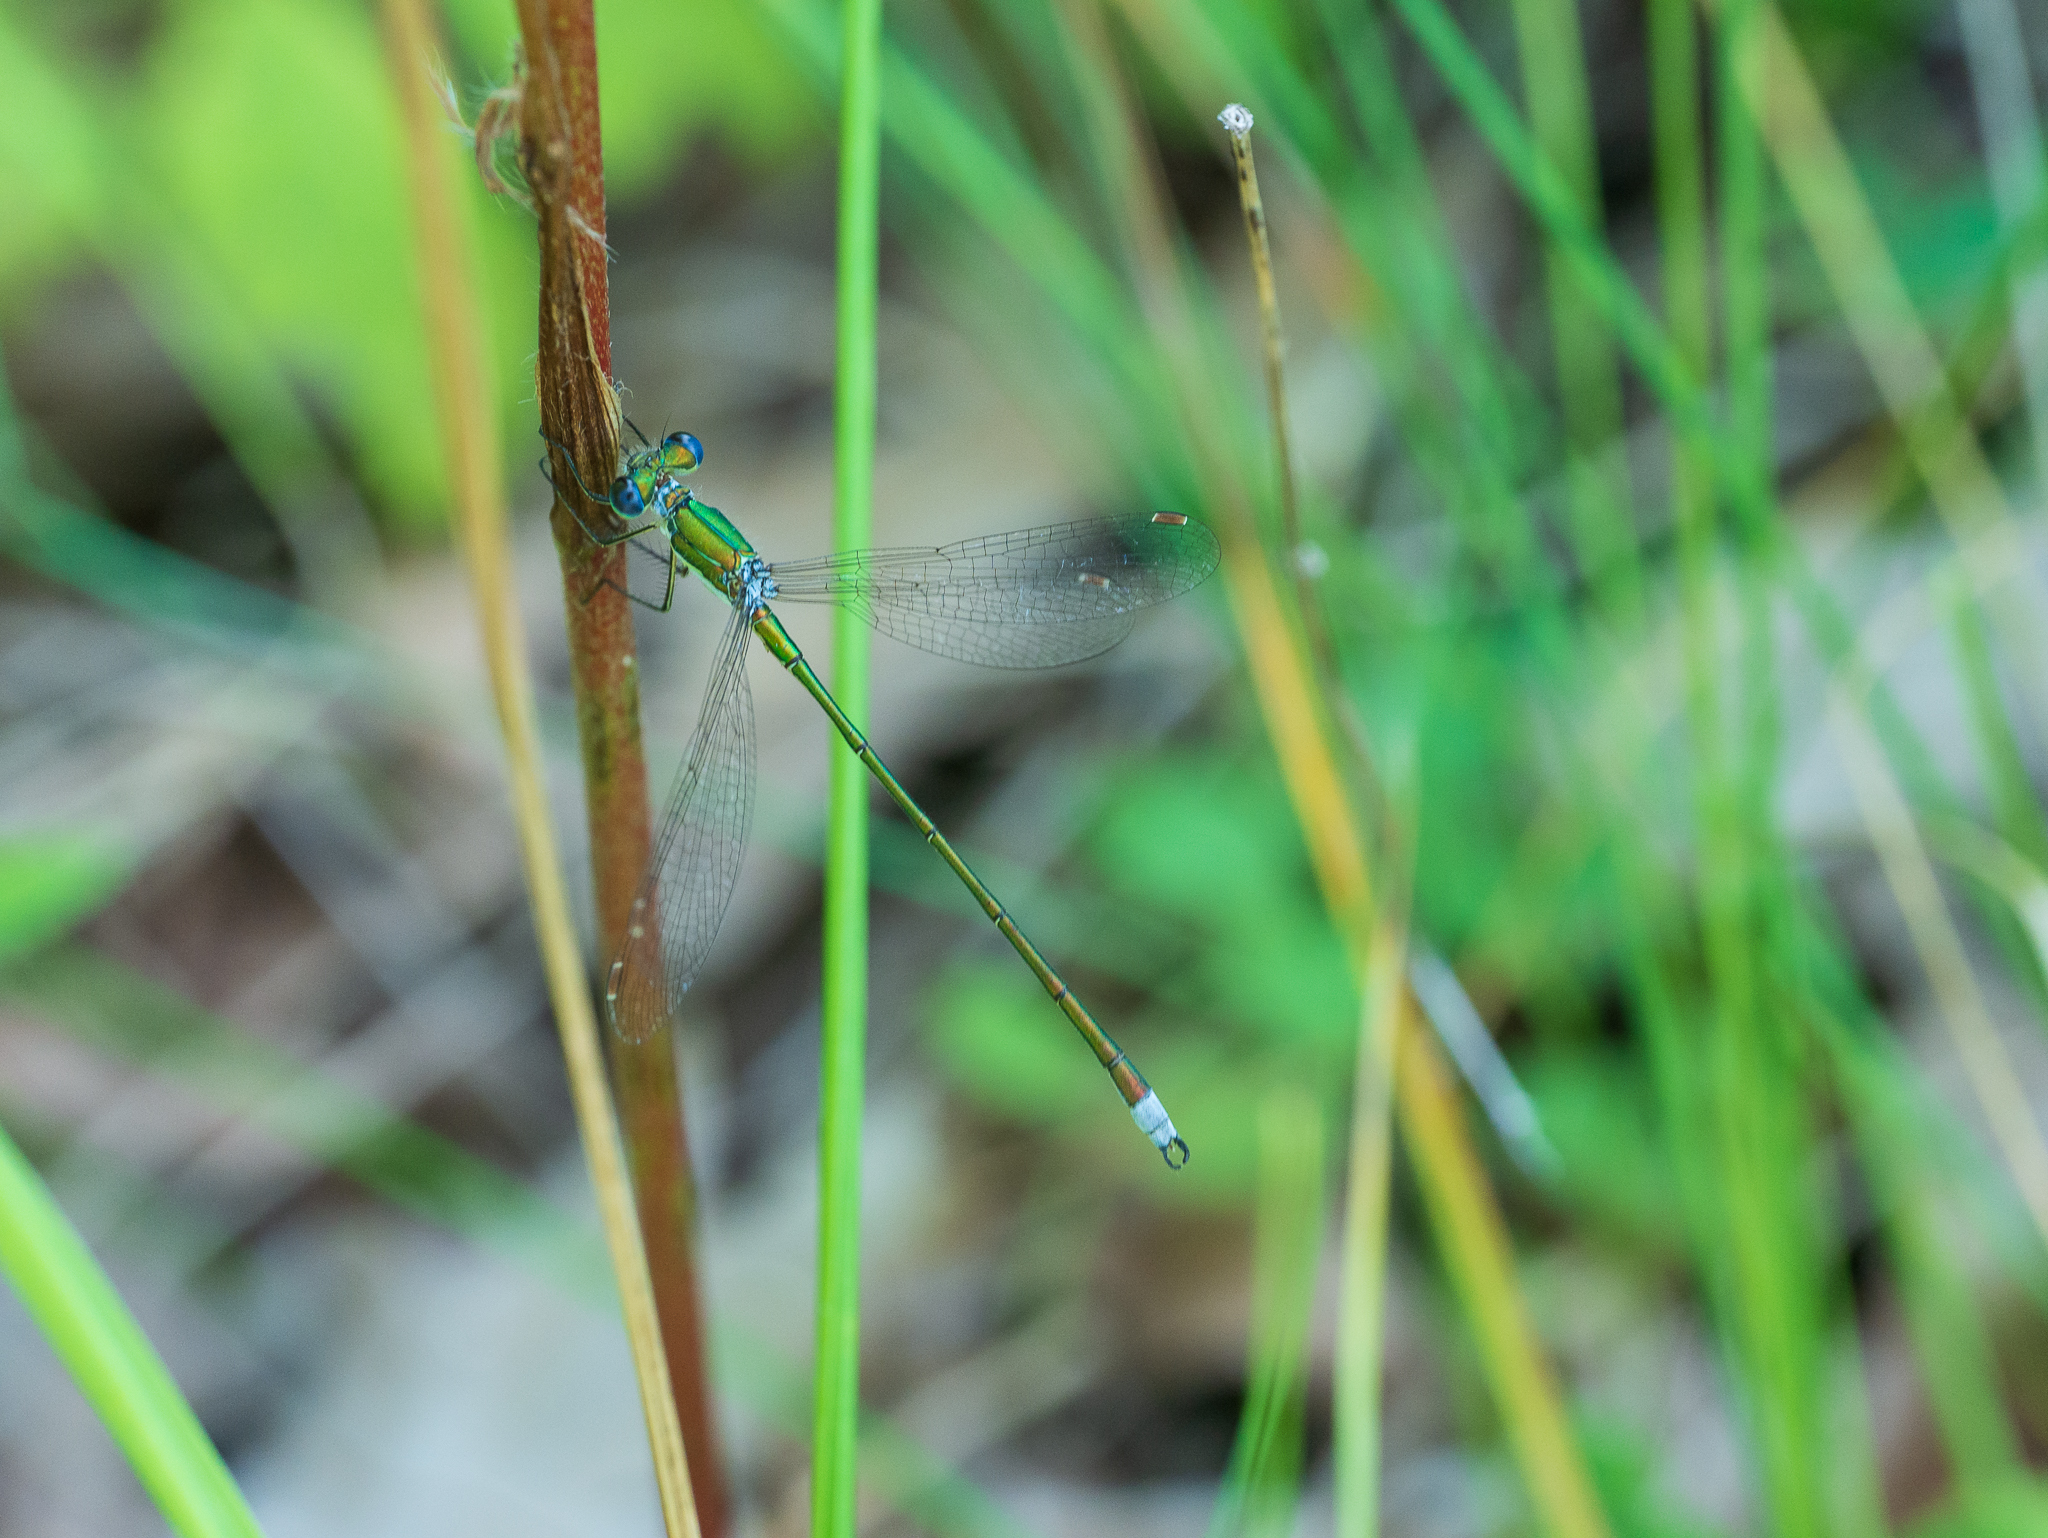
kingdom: Animalia
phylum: Arthropoda
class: Insecta
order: Odonata
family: Lestidae
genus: Lestes
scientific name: Lestes virens
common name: Small emerald spreadwing
